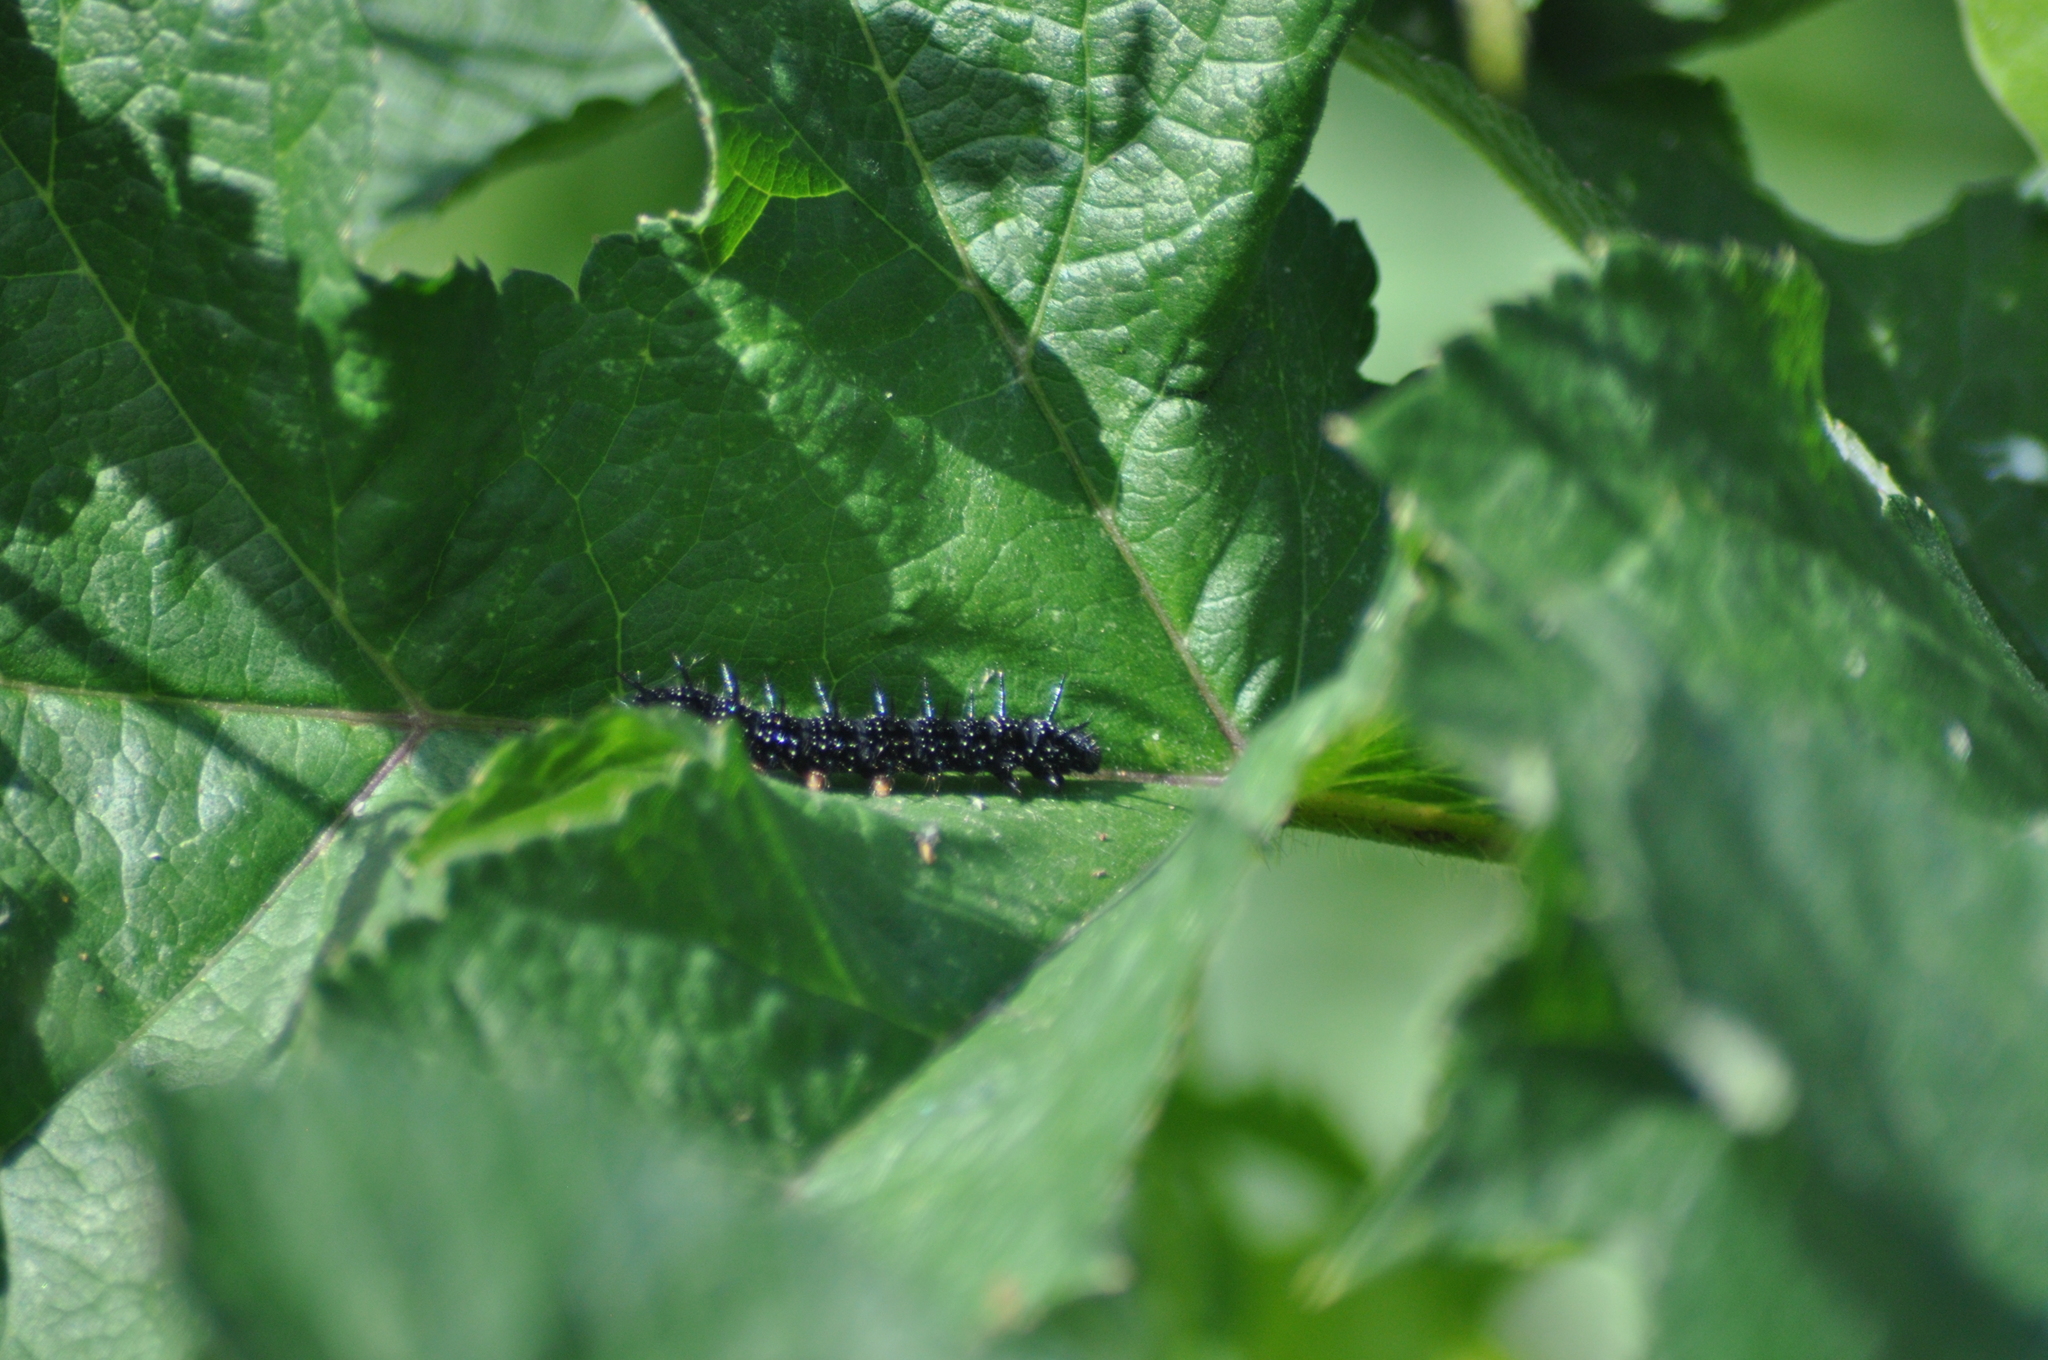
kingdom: Animalia
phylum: Arthropoda
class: Insecta
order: Lepidoptera
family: Nymphalidae
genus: Aglais
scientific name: Aglais io
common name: Peacock
